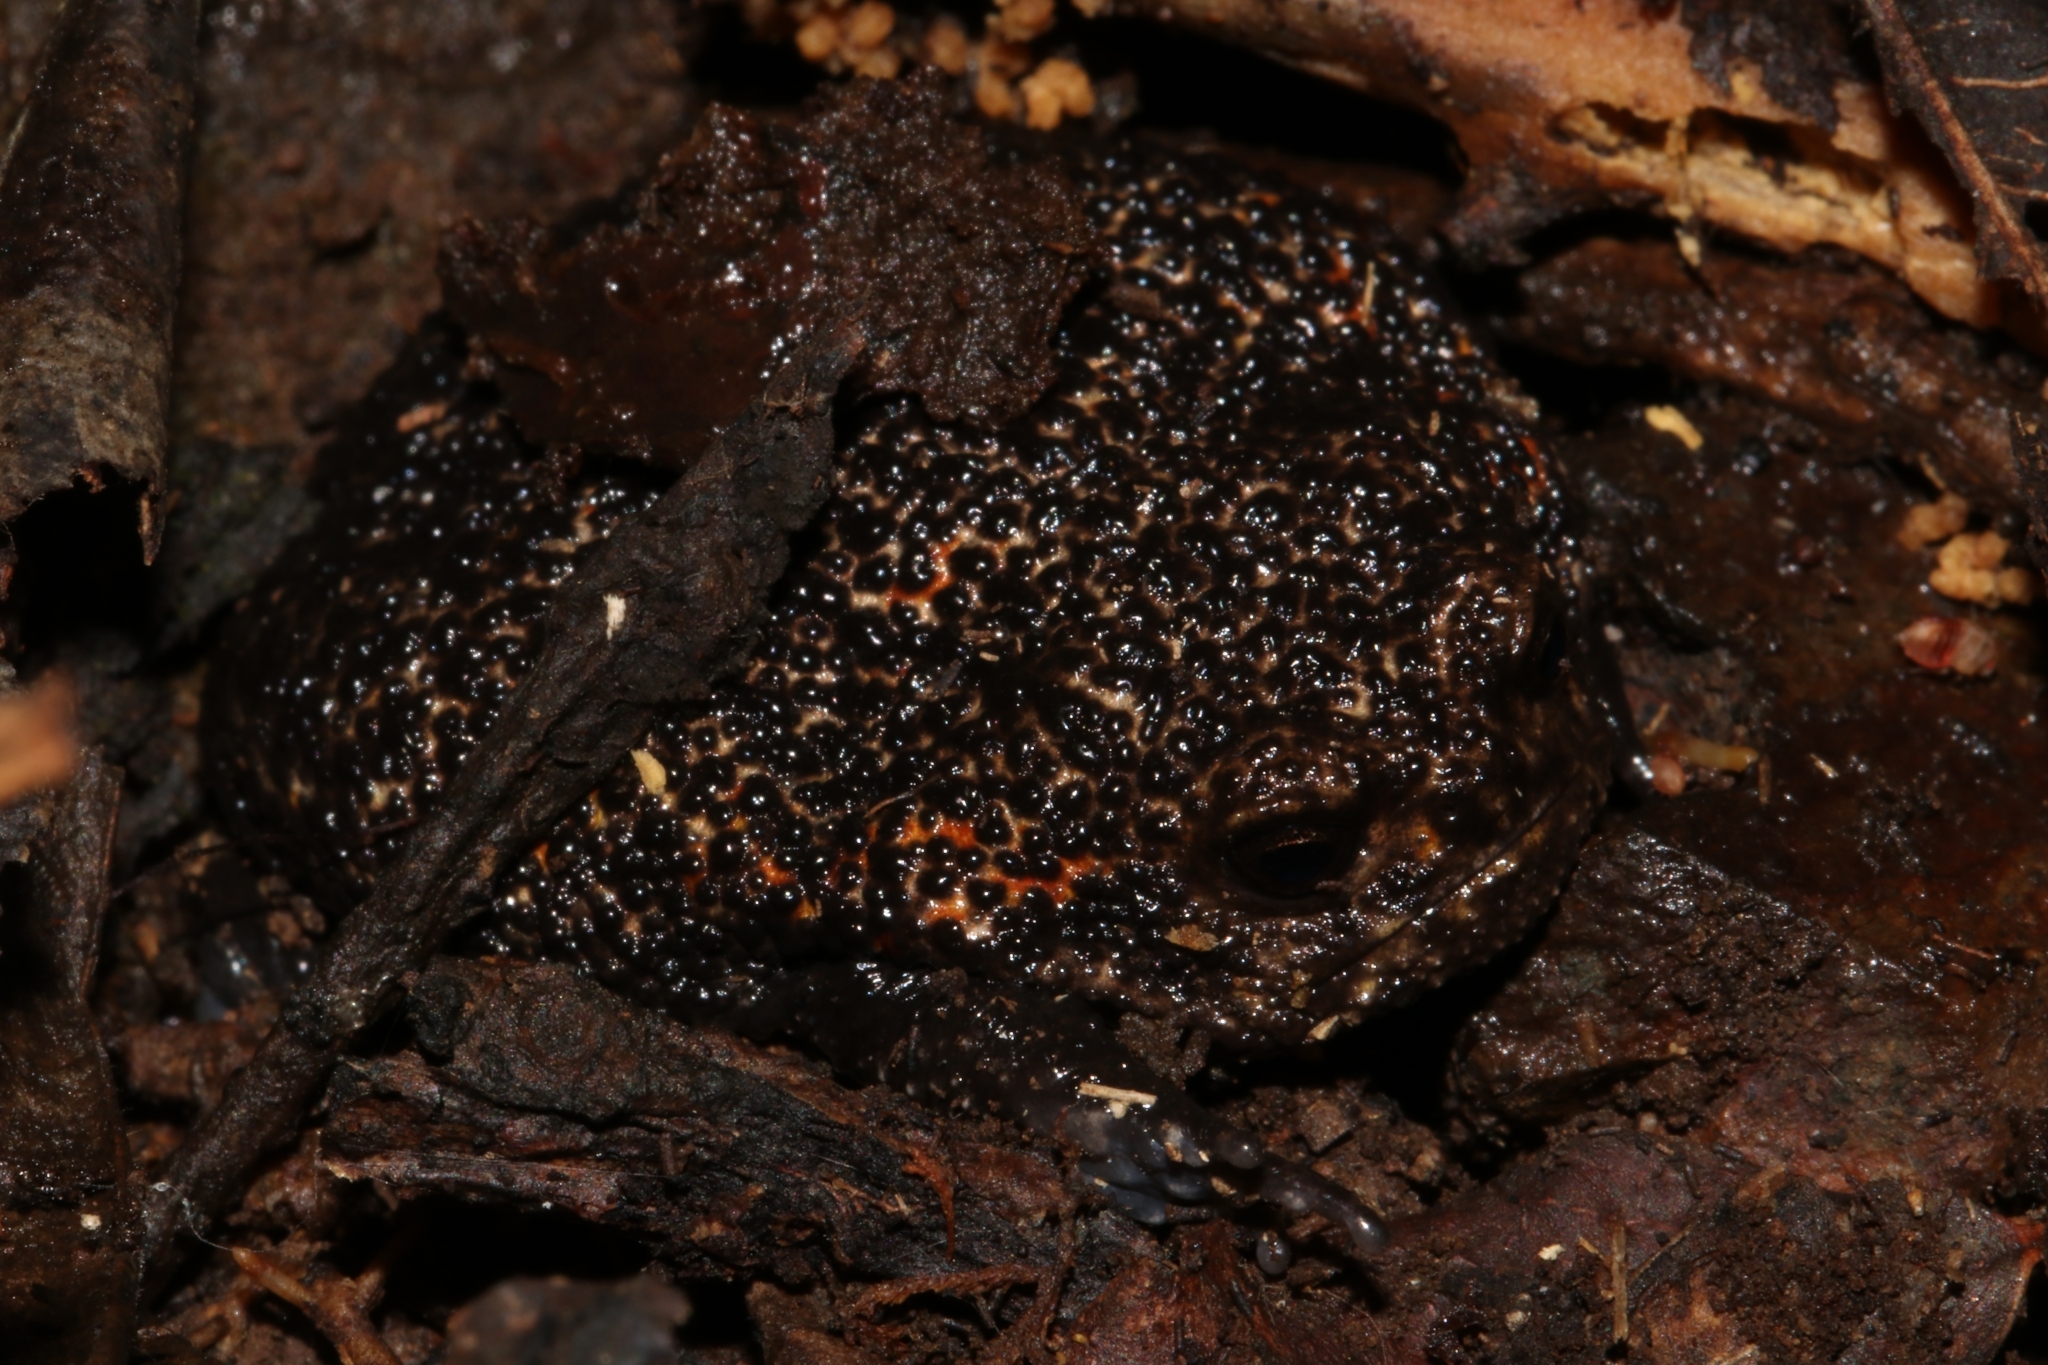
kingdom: Animalia
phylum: Chordata
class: Amphibia
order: Anura
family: Brevicipitidae
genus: Breviceps
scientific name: Breviceps acutirostris
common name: Strawberry rain frog
